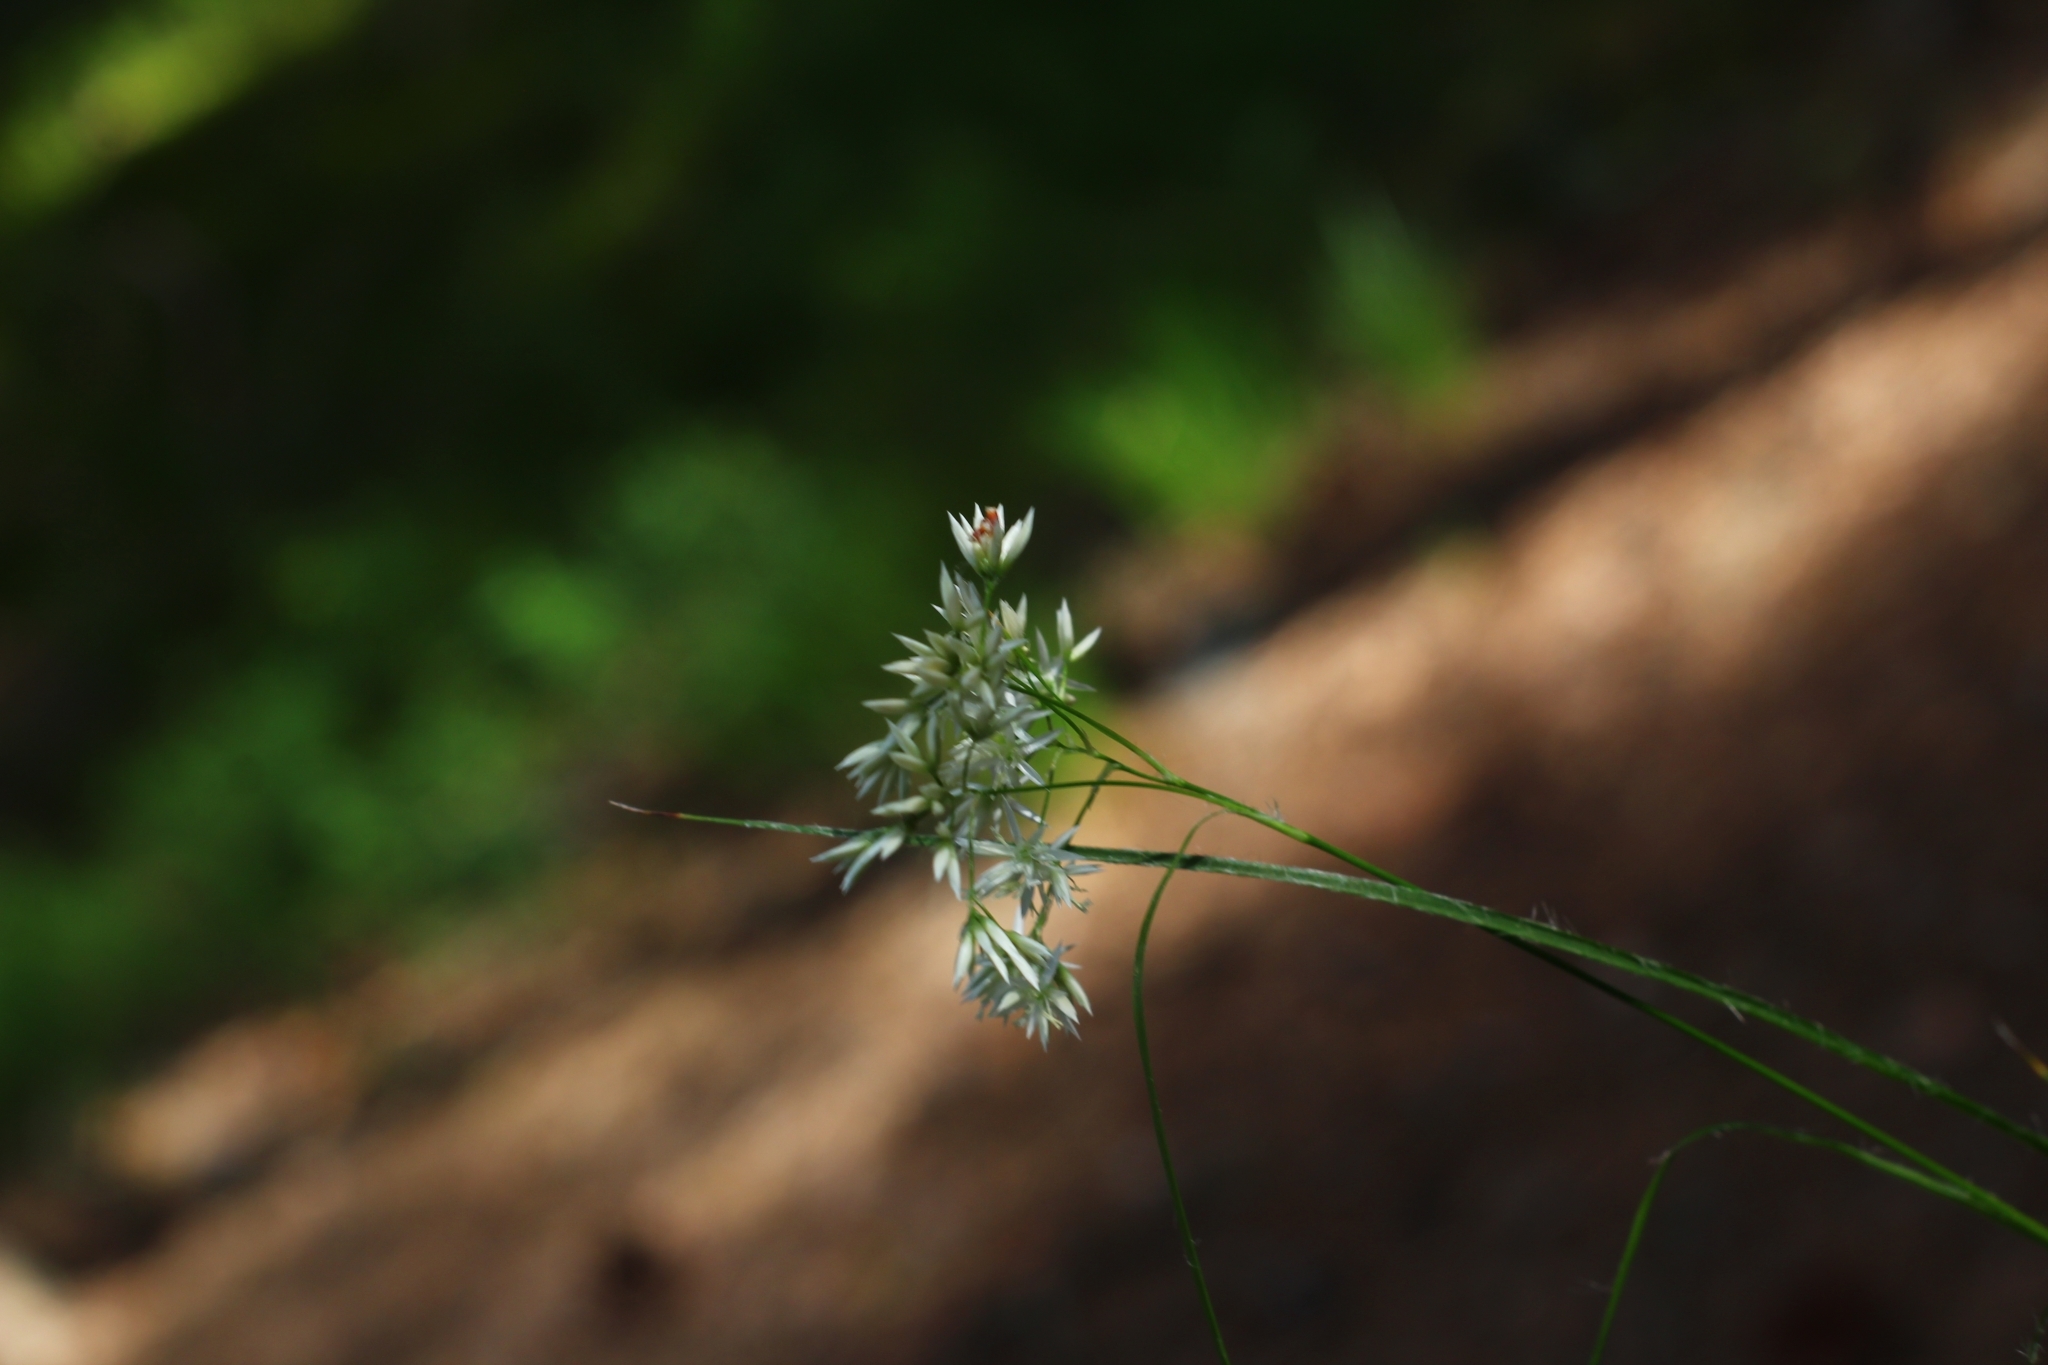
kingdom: Plantae
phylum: Tracheophyta
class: Liliopsida
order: Poales
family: Juncaceae
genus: Luzula
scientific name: Luzula nivea
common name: Snow-white wood-rush
